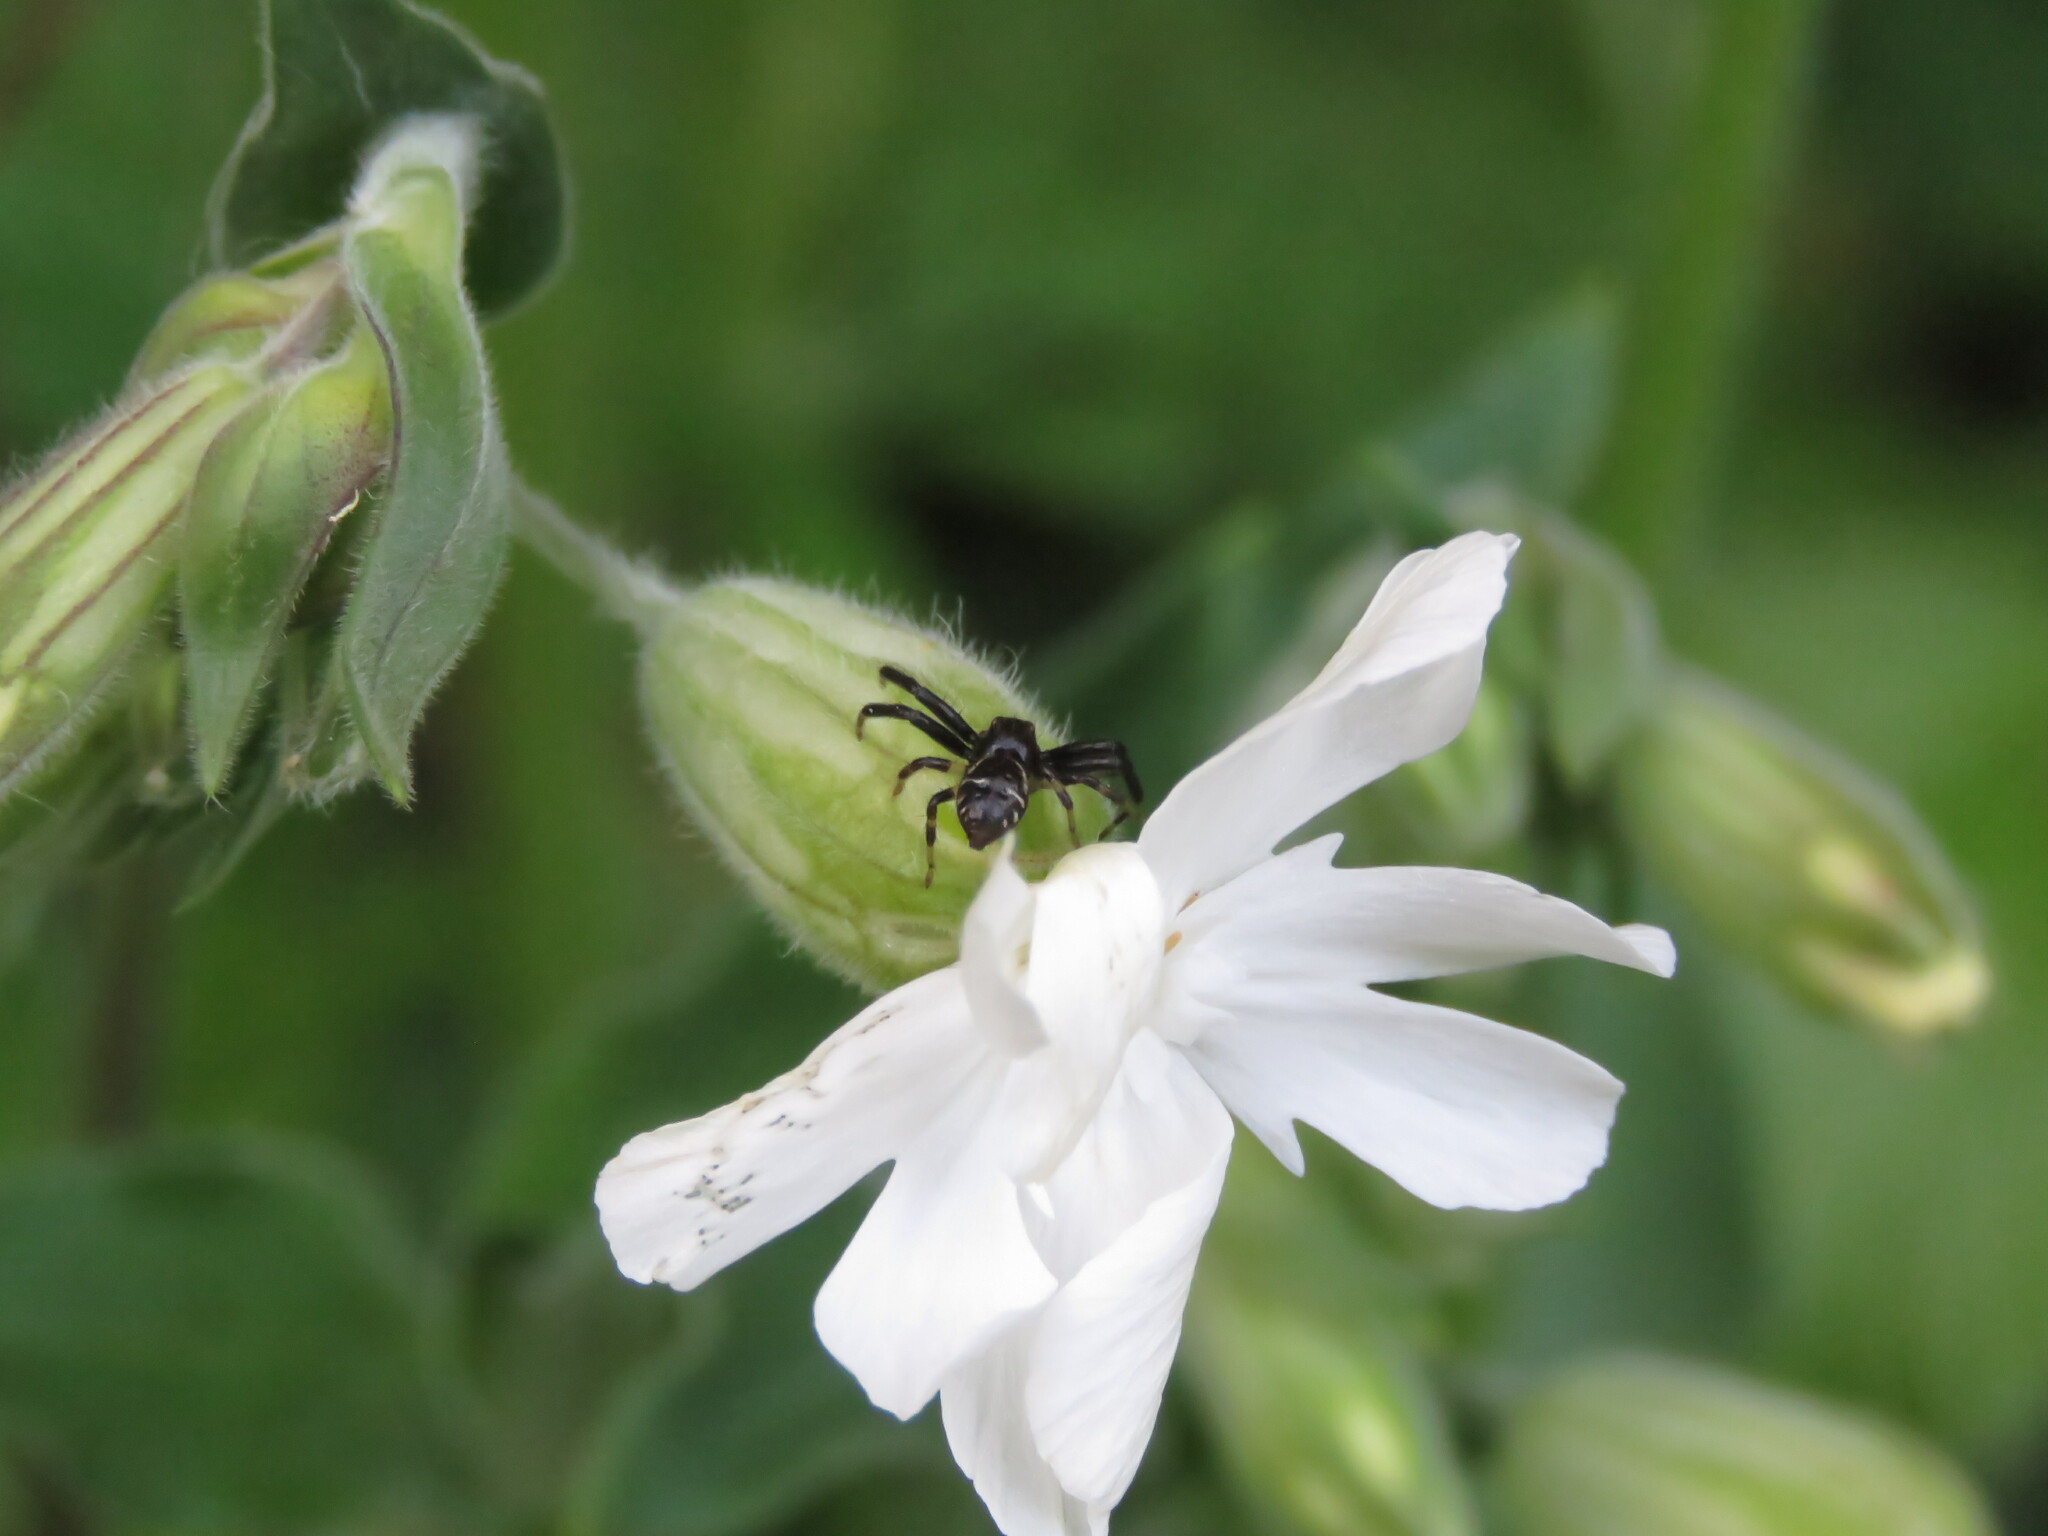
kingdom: Animalia
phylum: Arthropoda
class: Arachnida
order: Araneae
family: Thomisidae
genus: Synema
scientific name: Synema globosum
